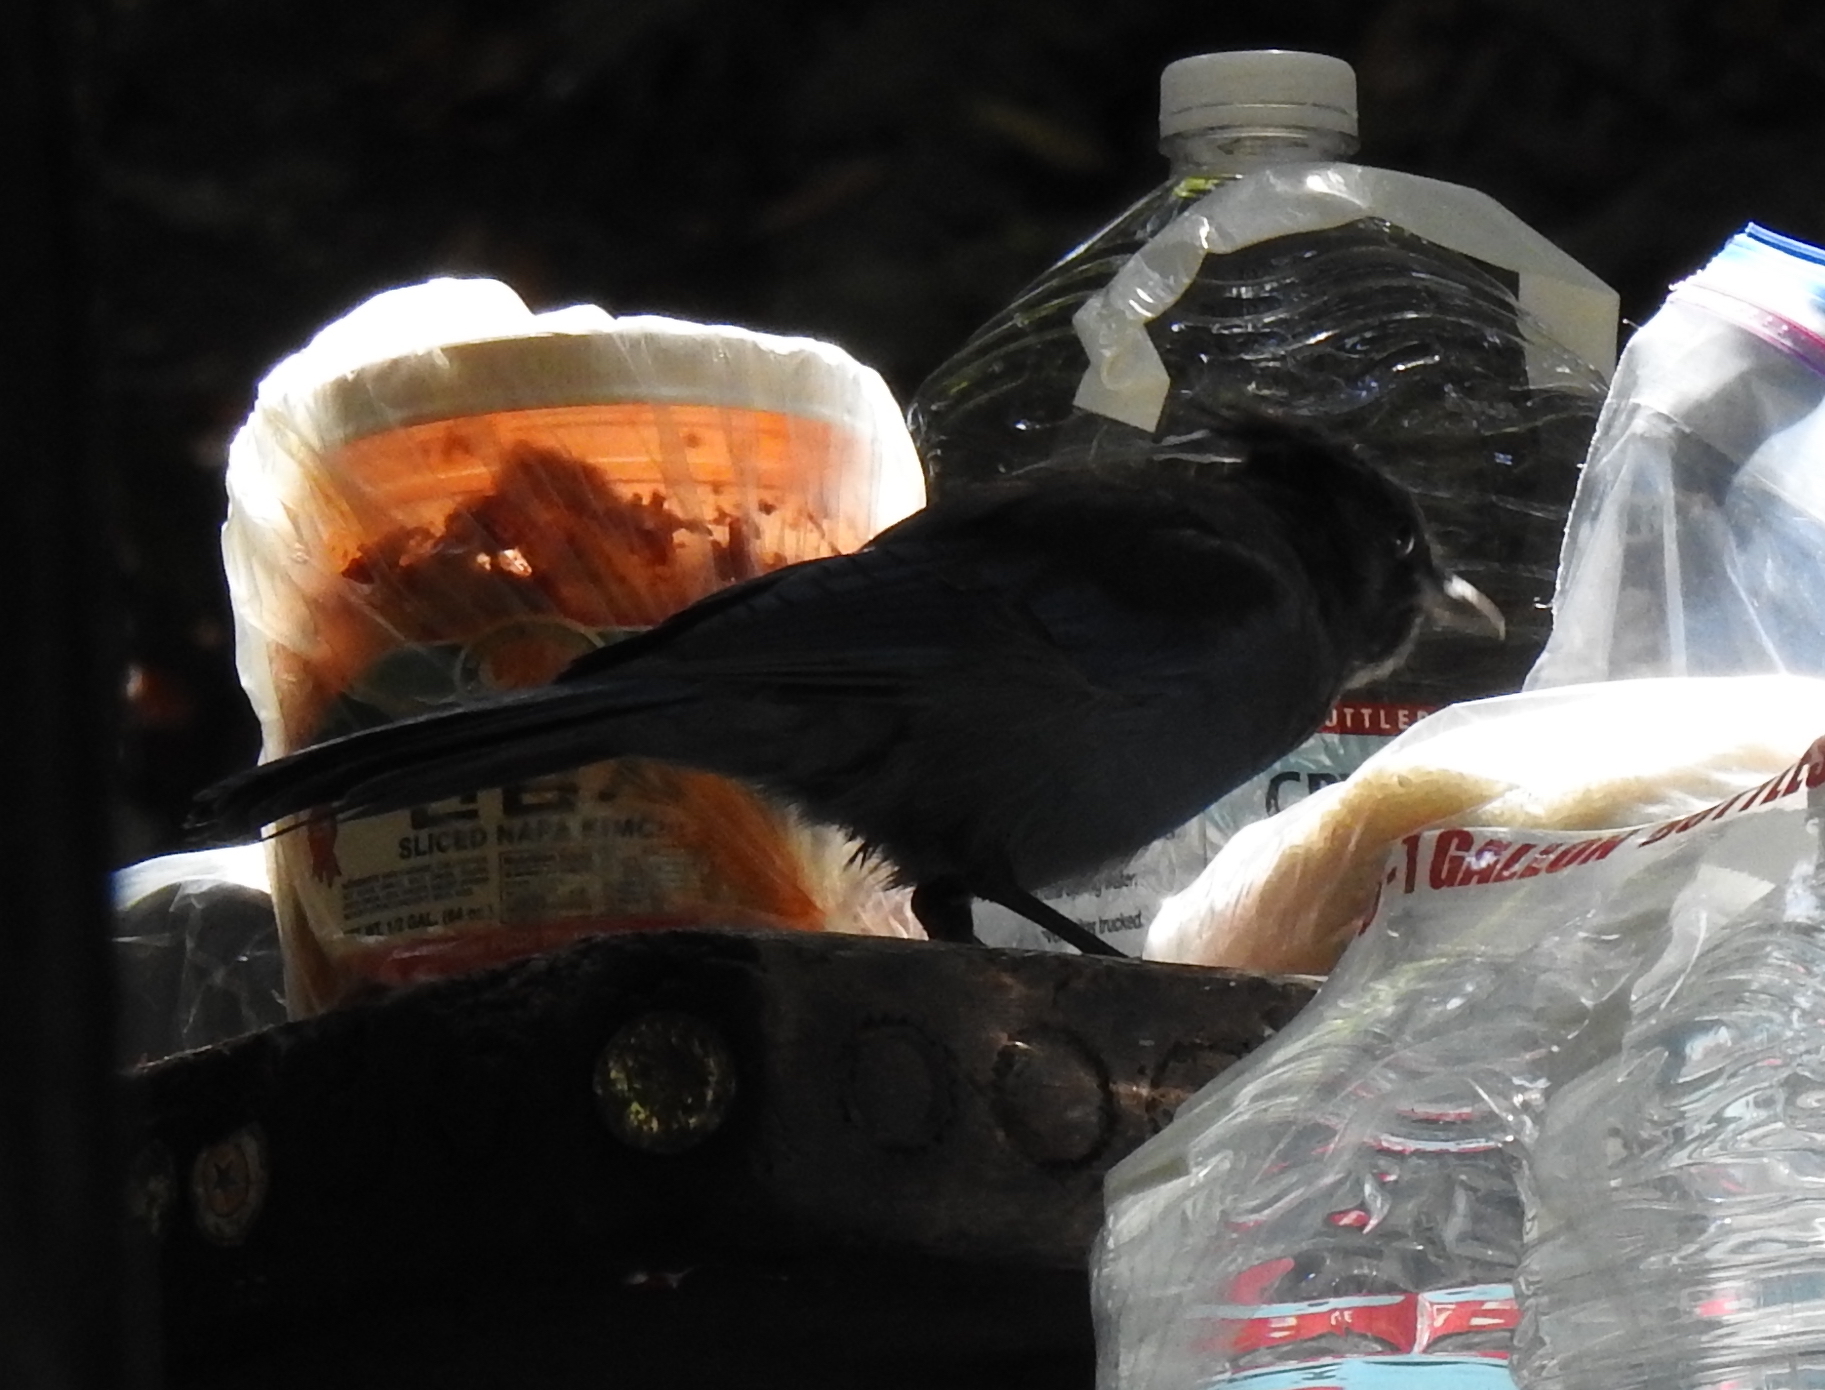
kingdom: Animalia
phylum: Chordata
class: Aves
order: Passeriformes
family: Corvidae
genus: Cyanocitta
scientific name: Cyanocitta stelleri
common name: Steller's jay
